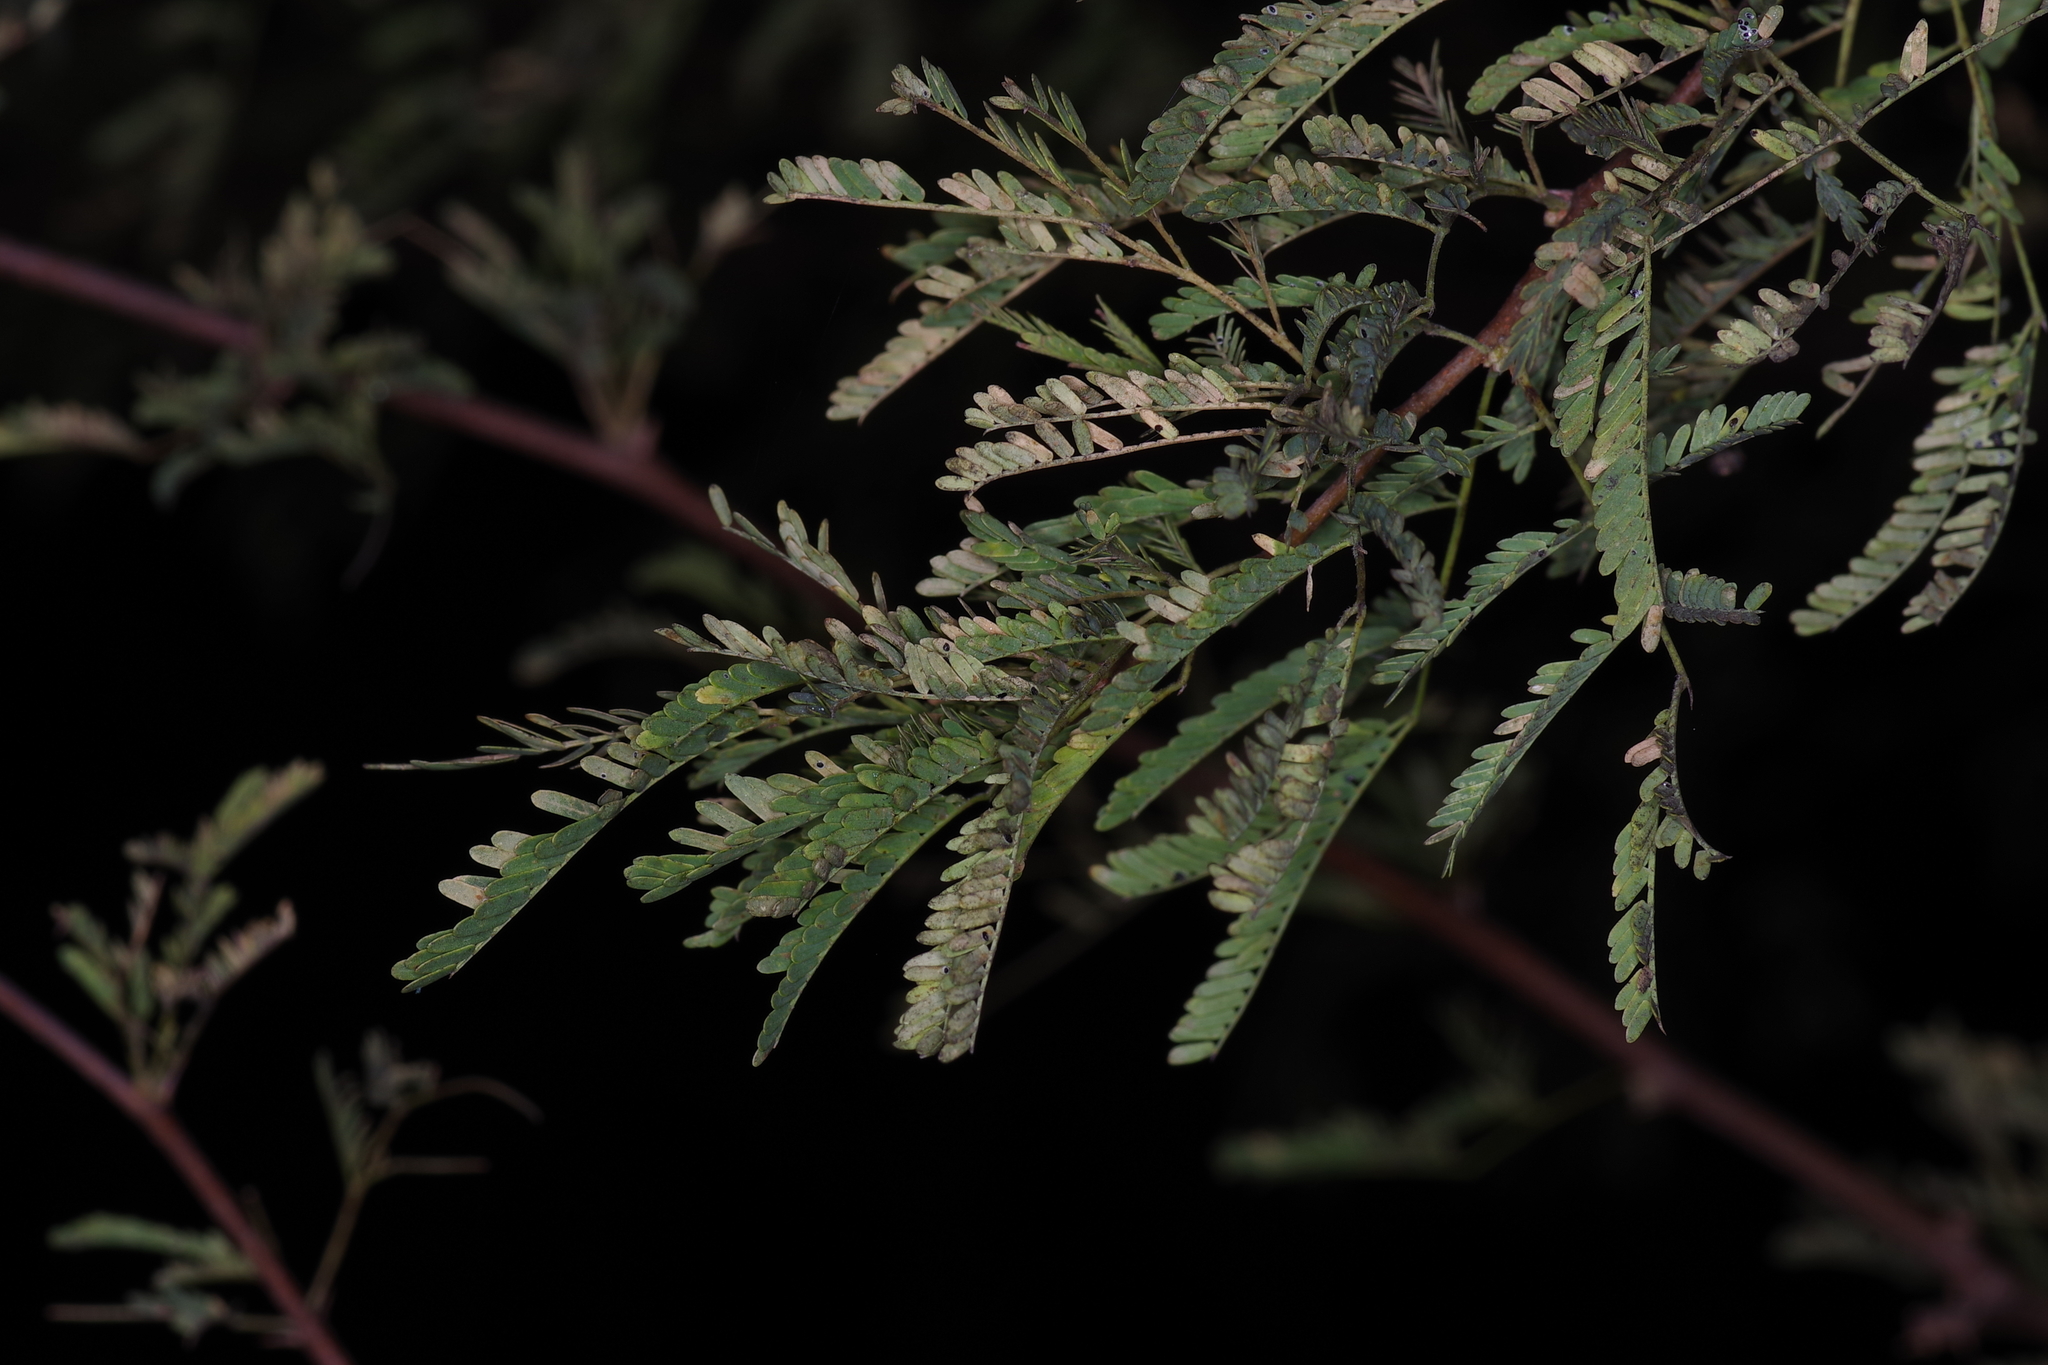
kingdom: Plantae
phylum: Tracheophyta
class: Magnoliopsida
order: Fabales
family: Fabaceae
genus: Vachellia
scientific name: Vachellia farnesiana
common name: Sweet acacia
